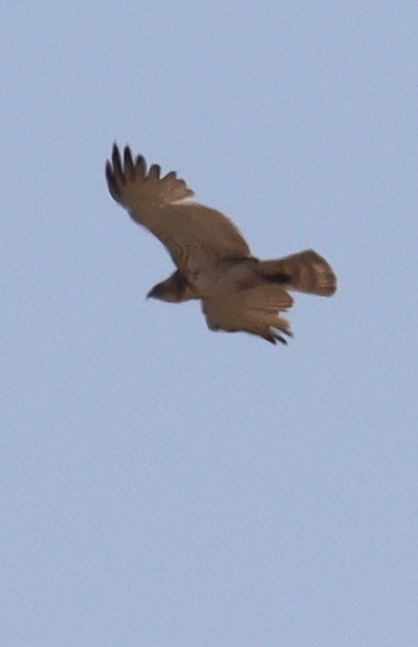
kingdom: Animalia
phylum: Chordata
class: Aves
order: Accipitriformes
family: Accipitridae
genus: Circaetus
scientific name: Circaetus gallicus
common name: Short-toed snake eagle
